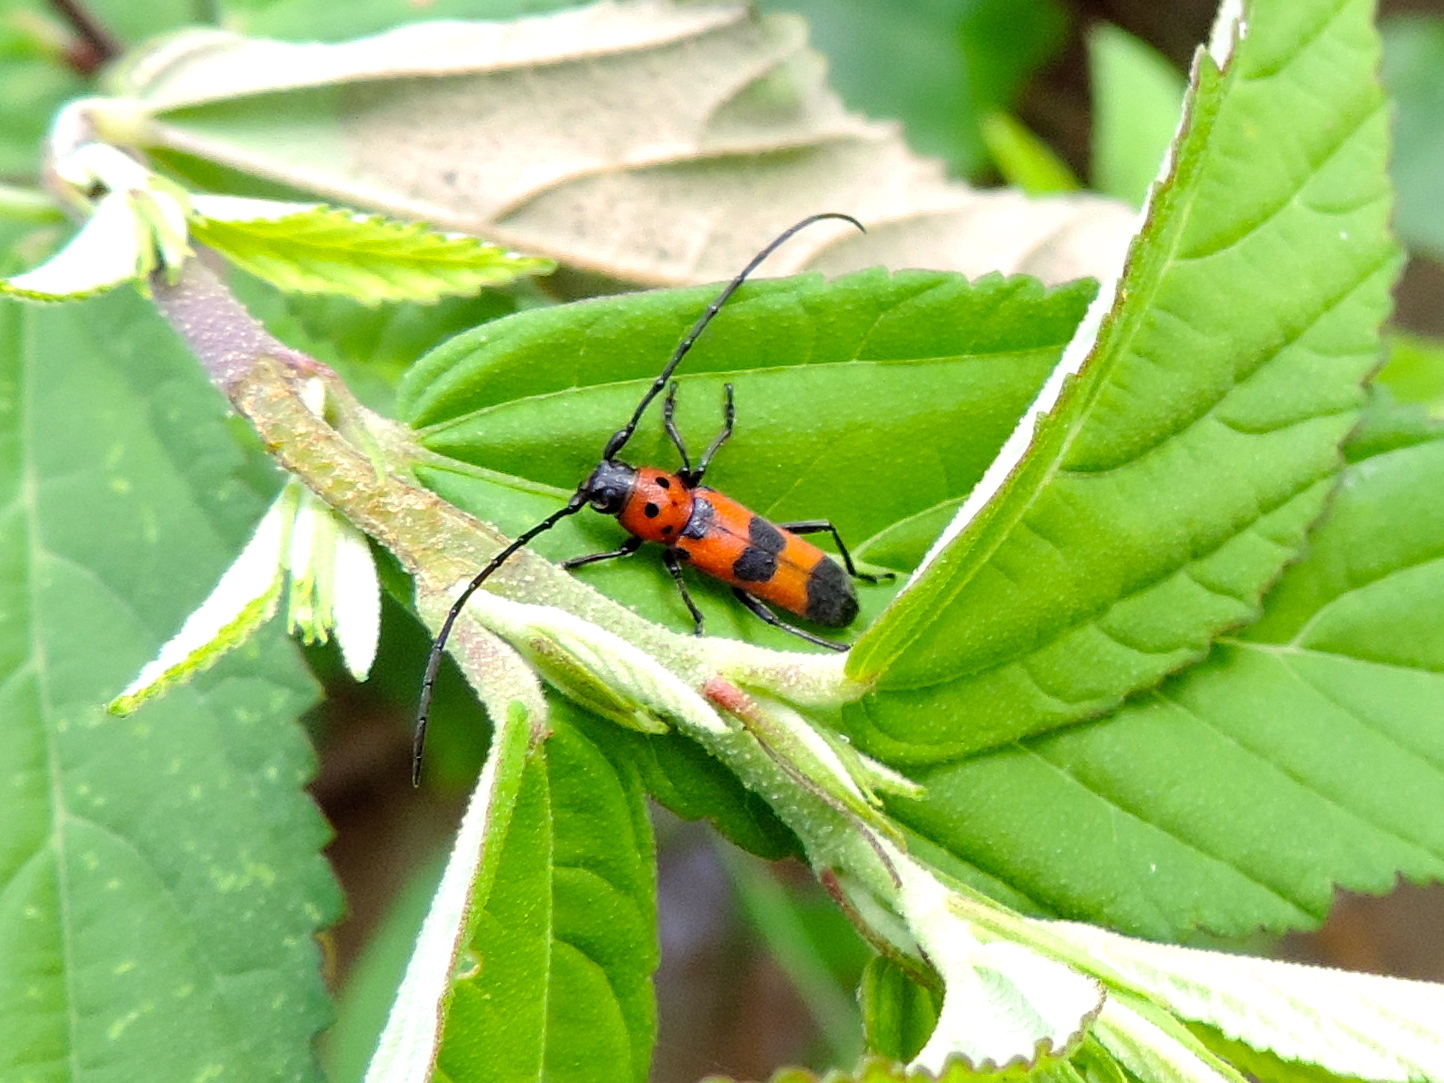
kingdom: Animalia
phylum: Arthropoda
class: Insecta
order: Coleoptera
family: Cerambycidae
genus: Tylosis
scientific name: Tylosis puncticollis
